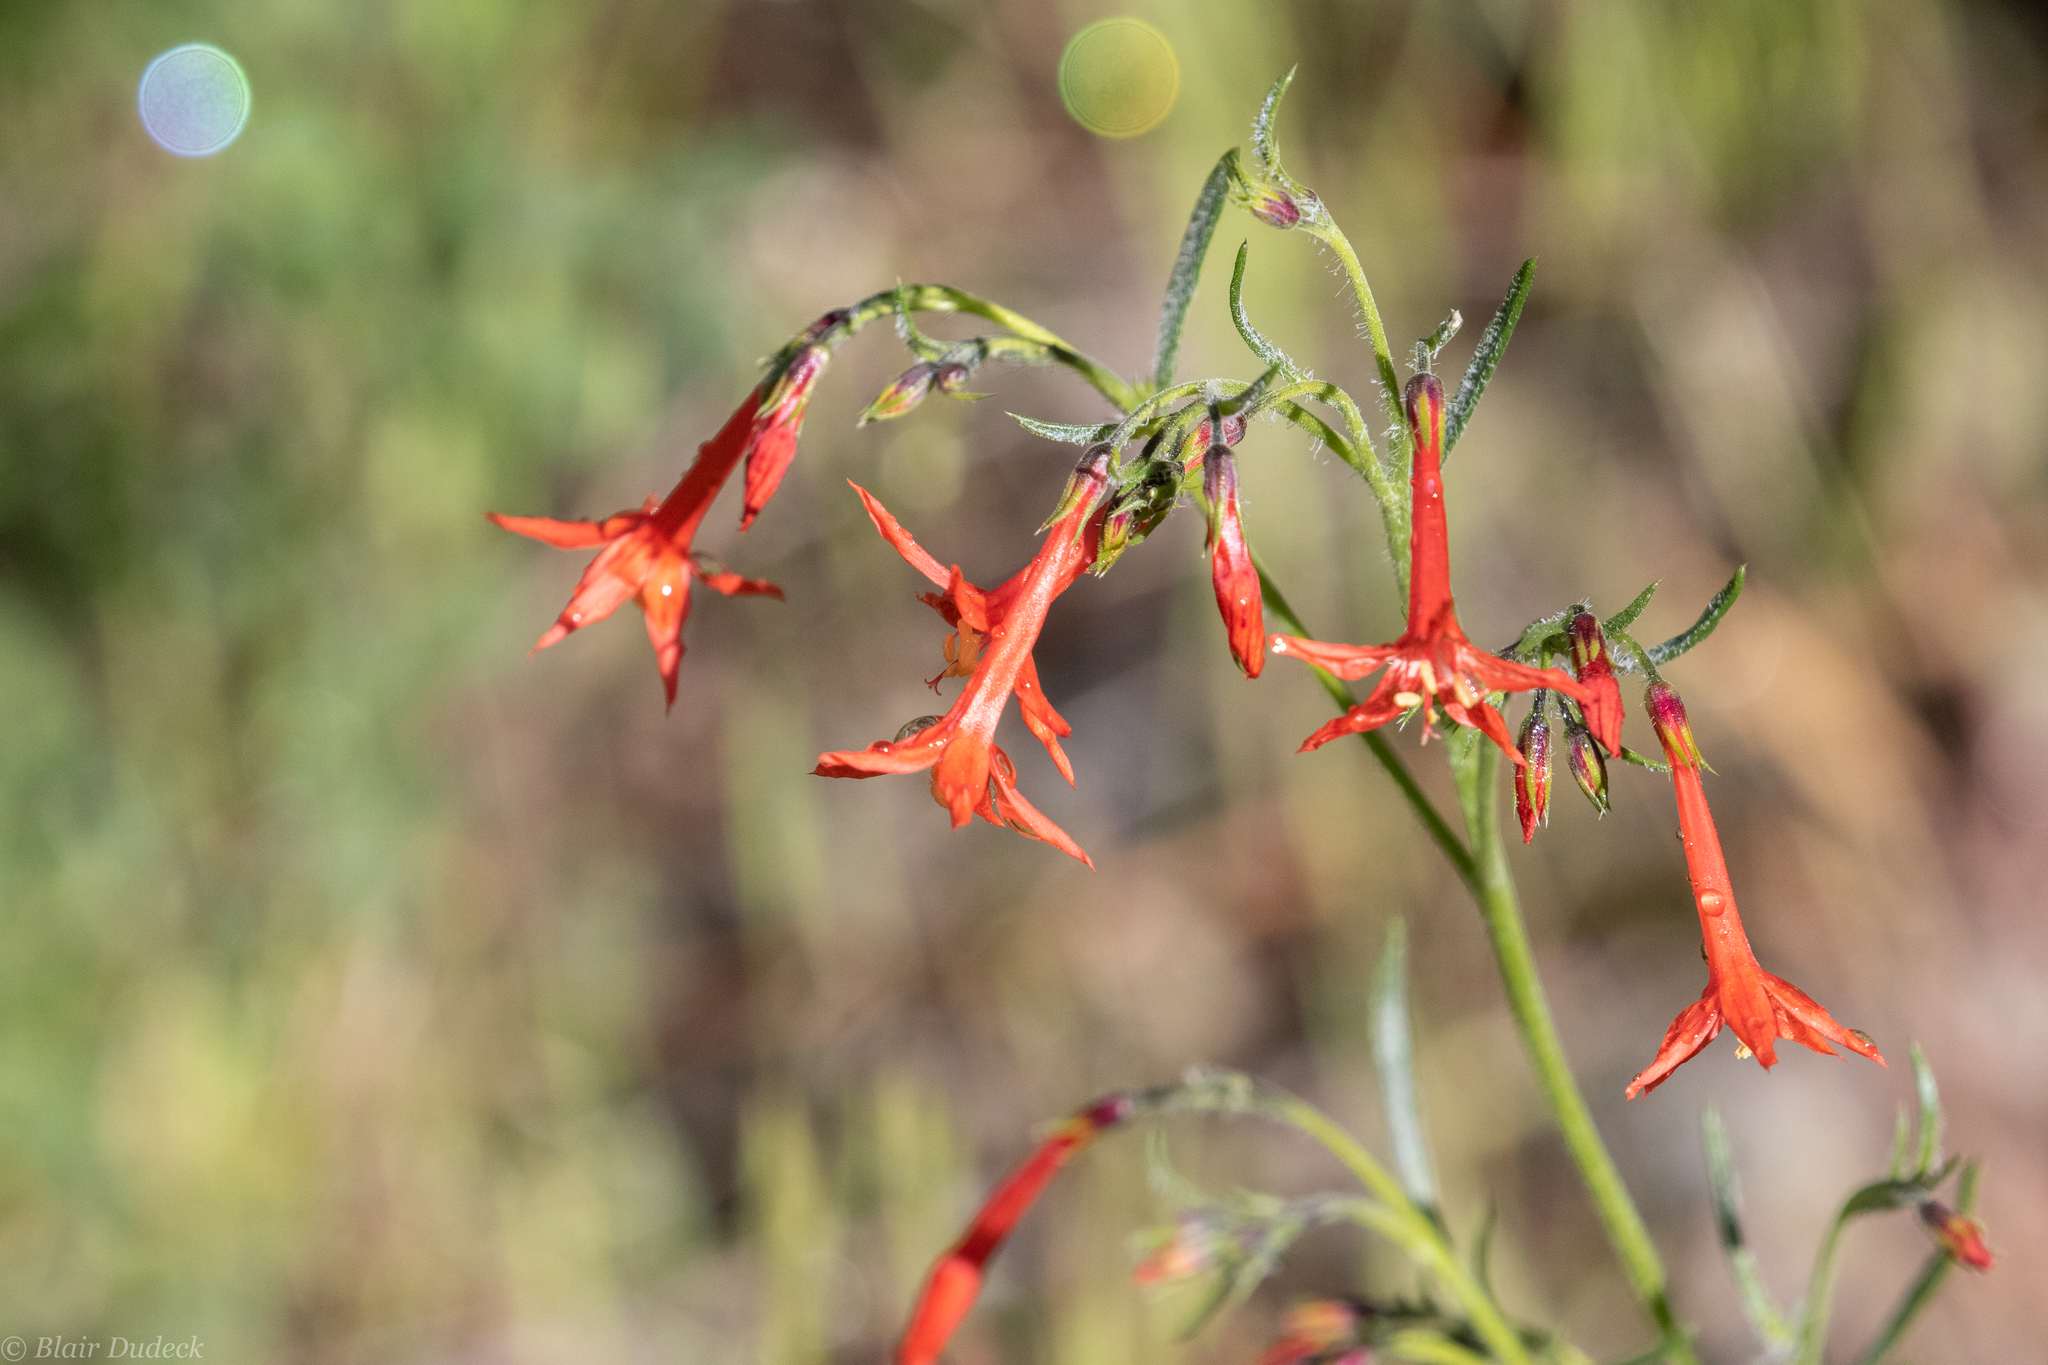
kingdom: Plantae
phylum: Tracheophyta
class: Magnoliopsida
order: Ericales
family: Polemoniaceae
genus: Ipomopsis
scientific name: Ipomopsis aggregata
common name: Scarlet gilia
